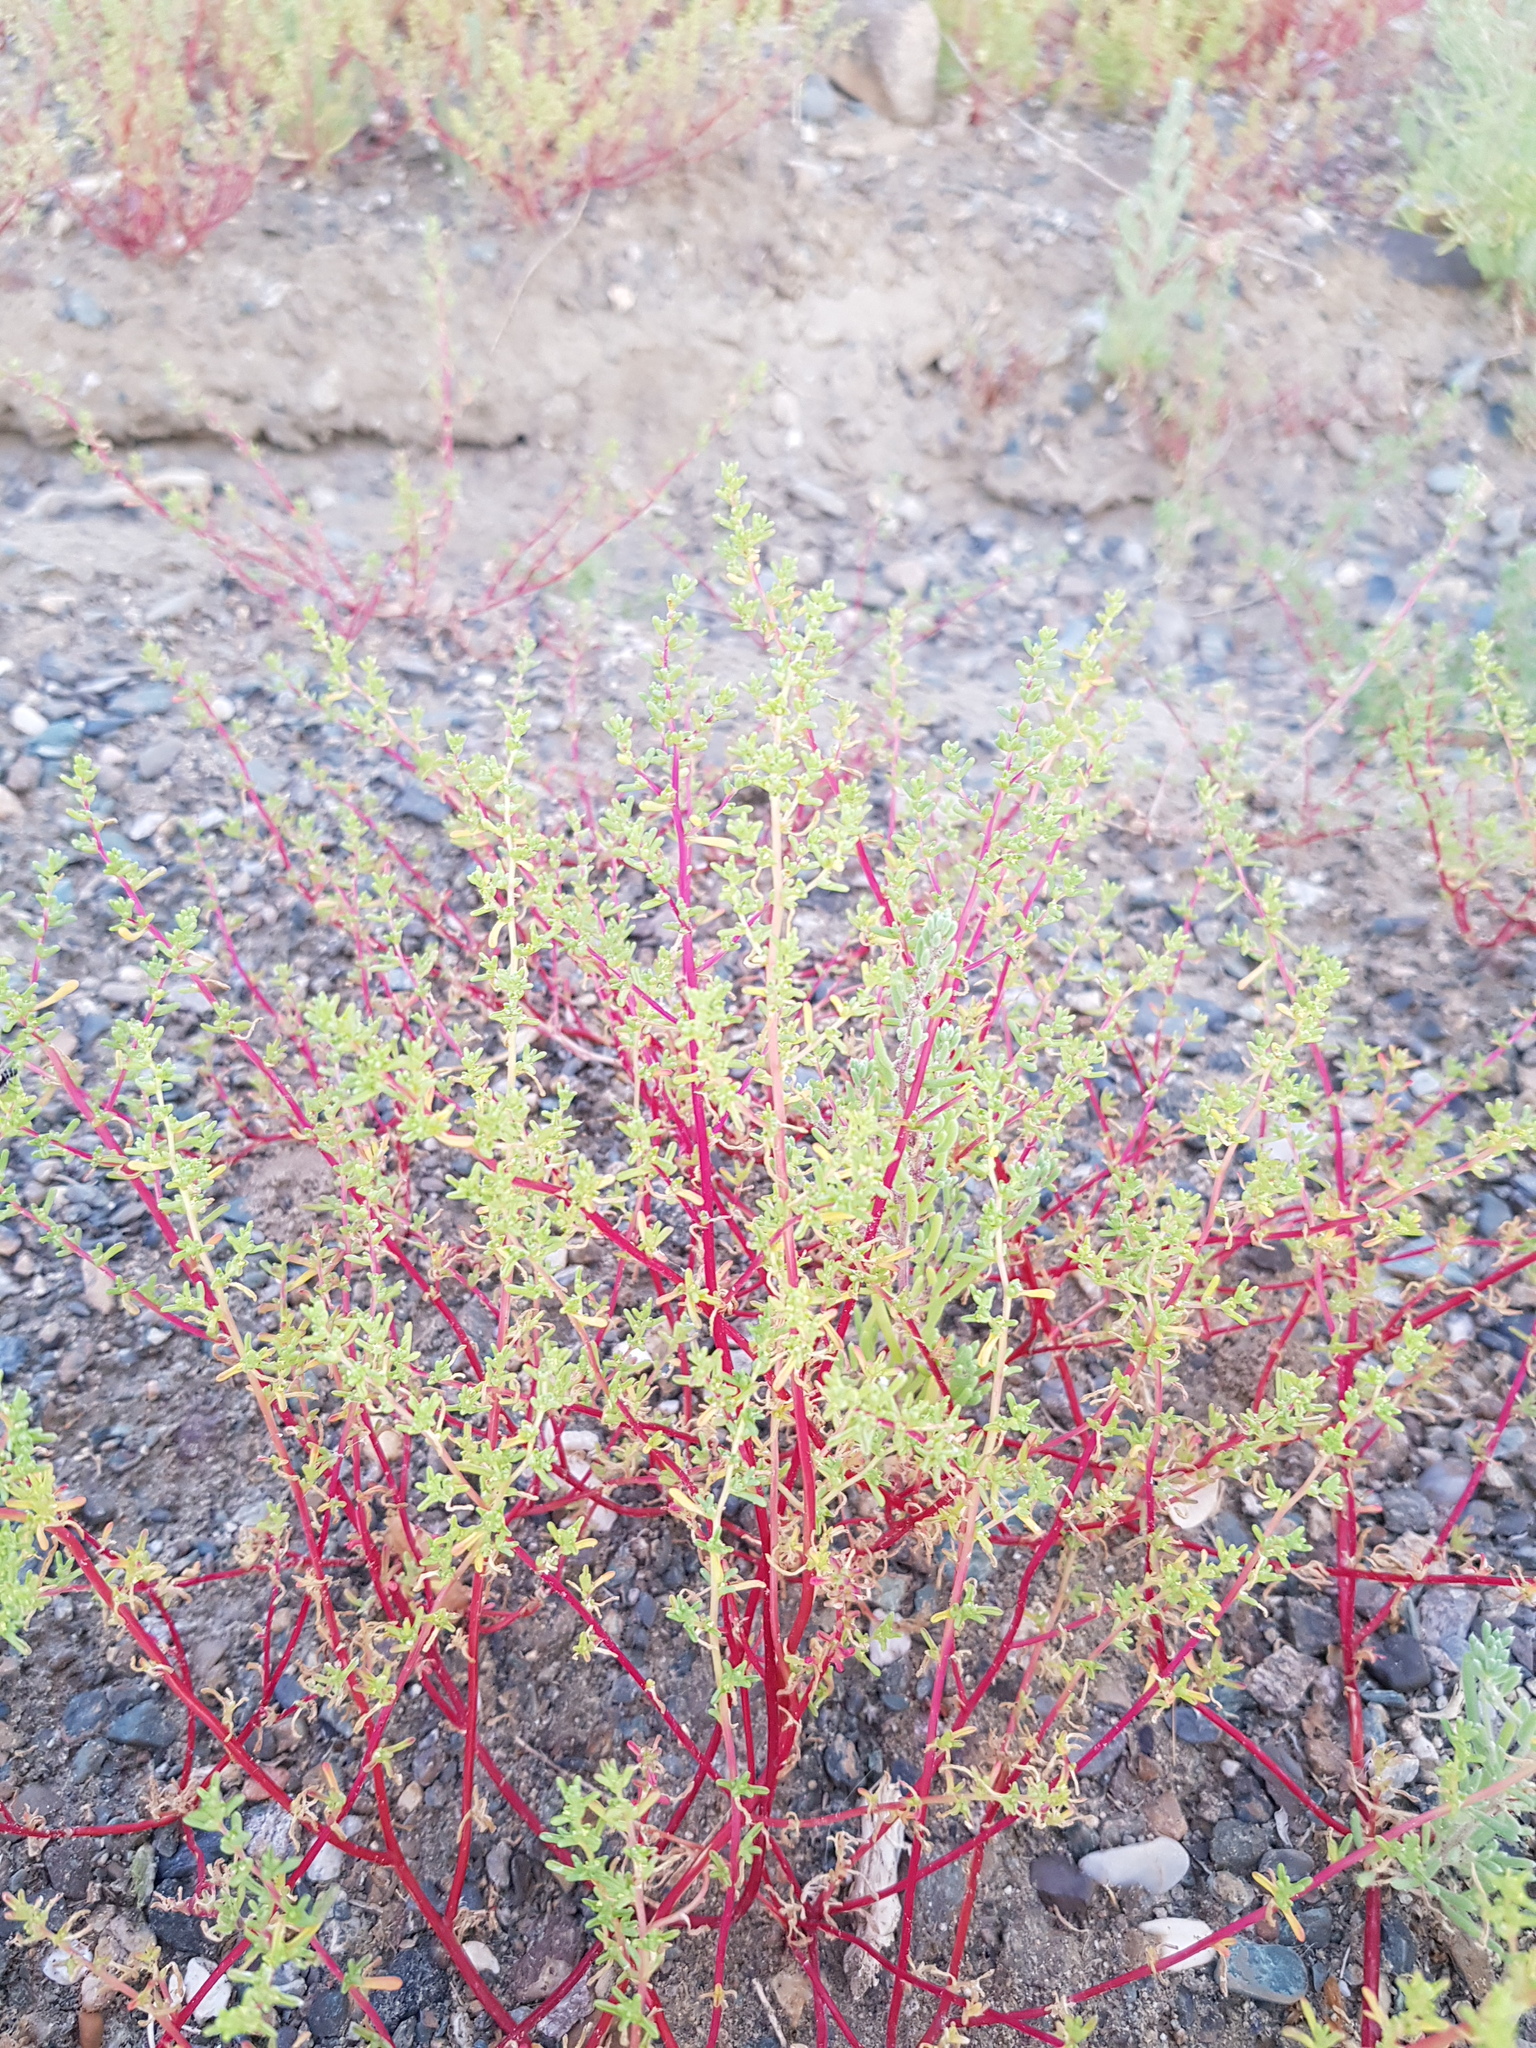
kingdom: Plantae
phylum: Tracheophyta
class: Magnoliopsida
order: Caryophyllales
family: Amaranthaceae
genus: Halogeton
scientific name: Halogeton arachnoides
